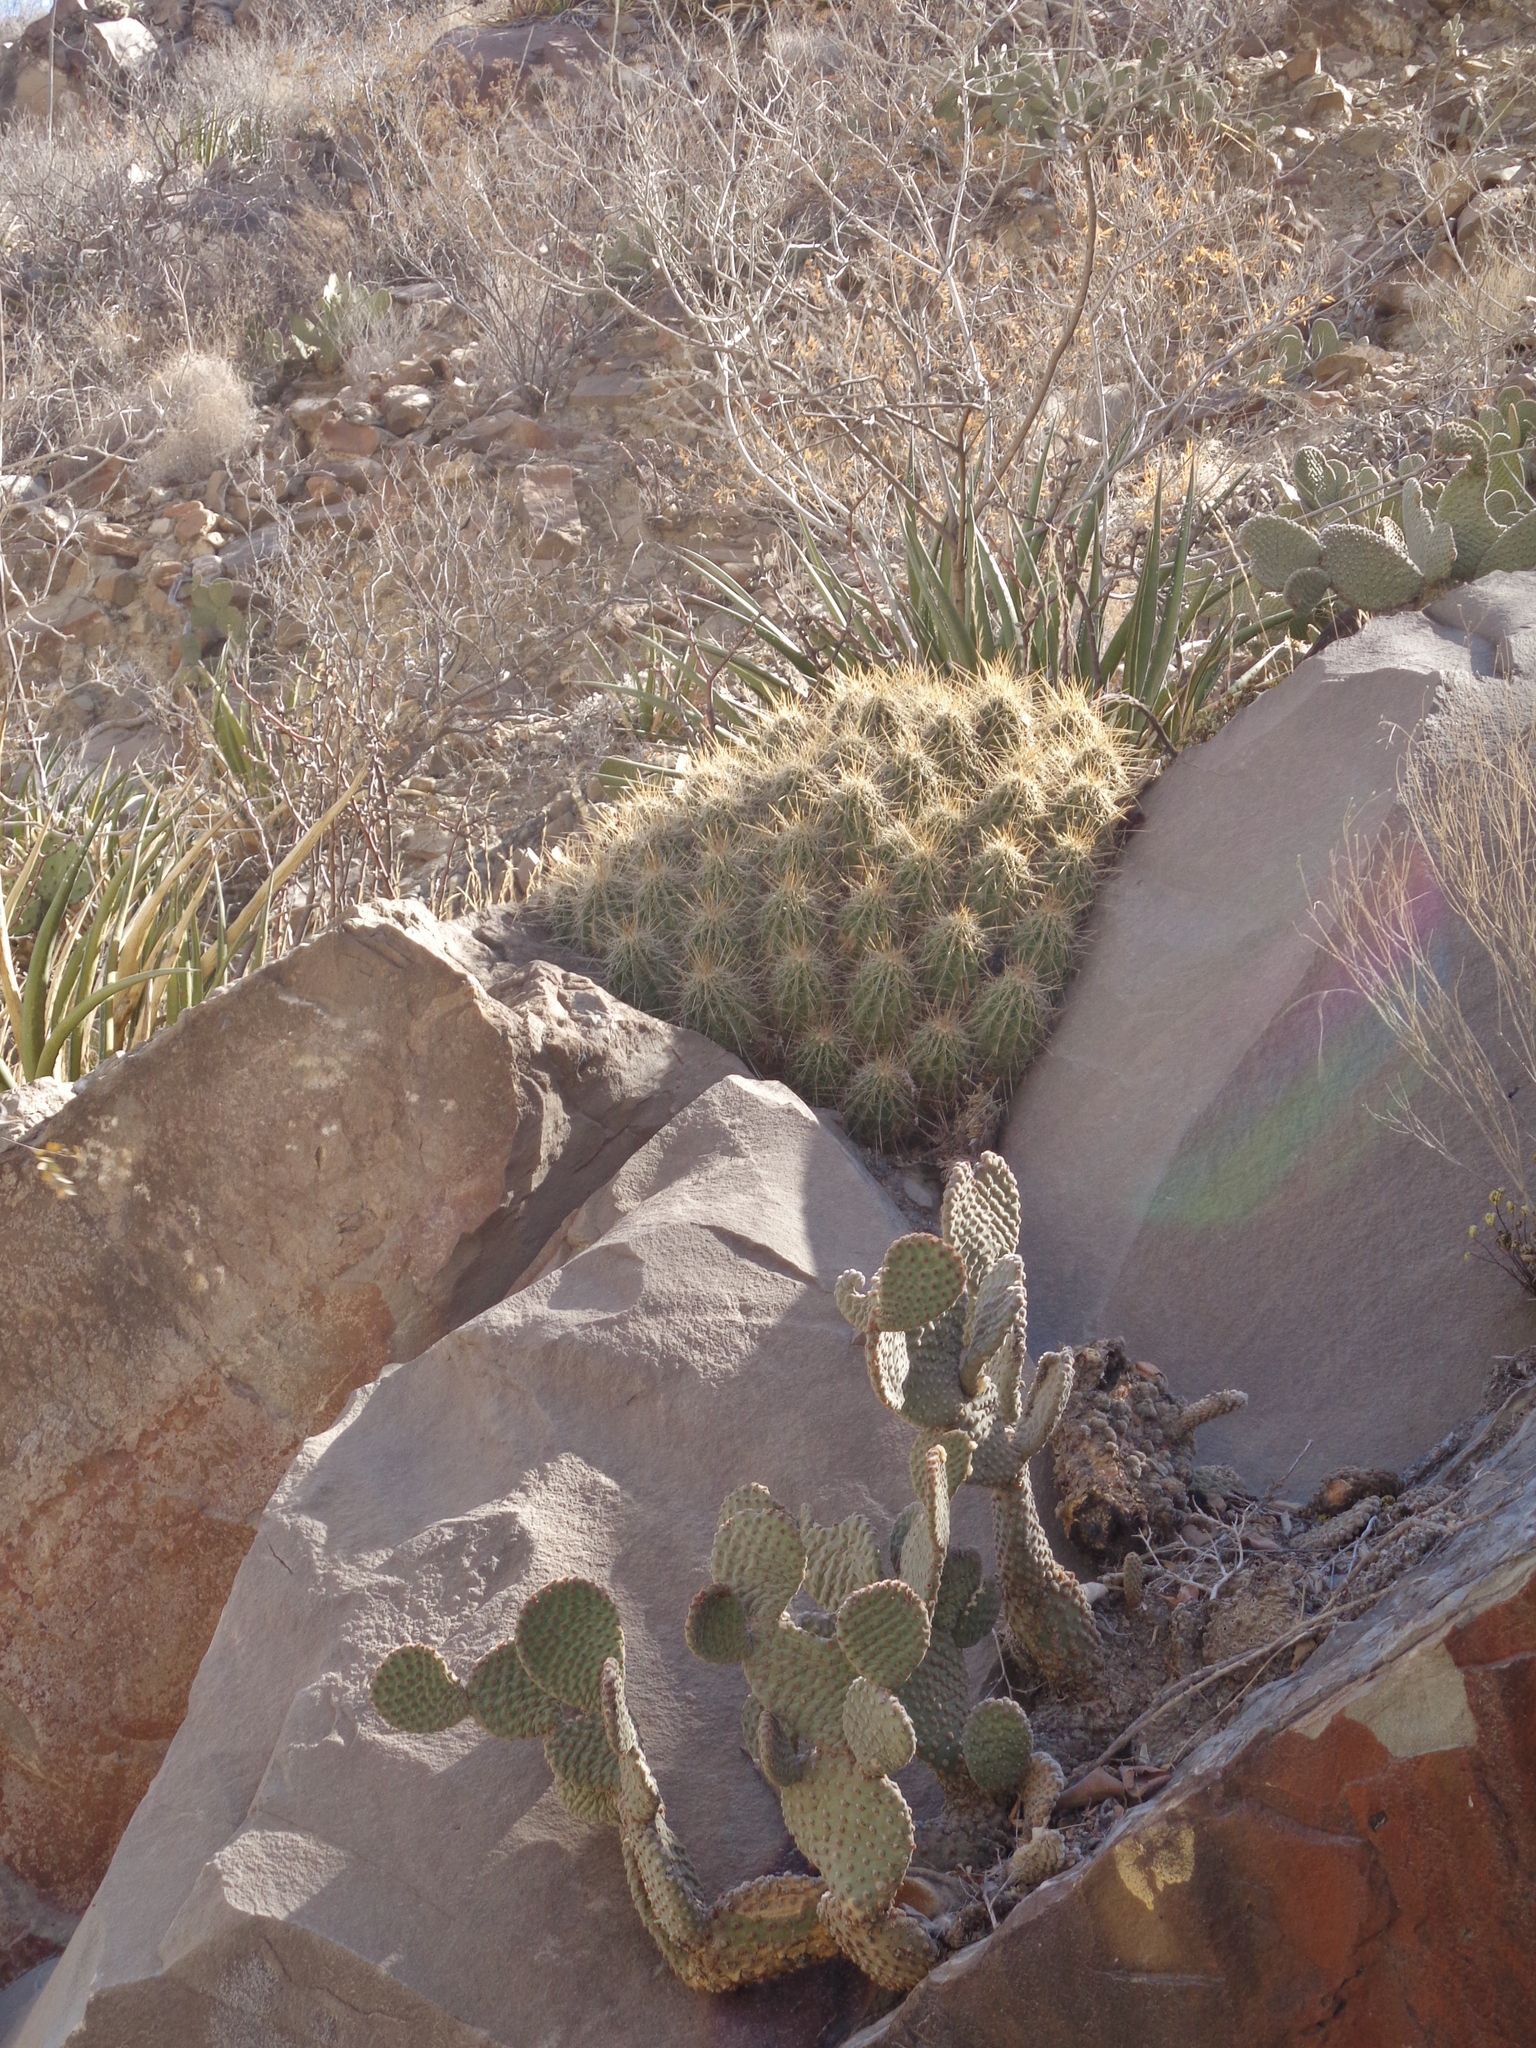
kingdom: Plantae
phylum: Tracheophyta
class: Magnoliopsida
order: Caryophyllales
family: Cactaceae
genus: Echinocereus
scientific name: Echinocereus enneacanthus
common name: Pitaya
